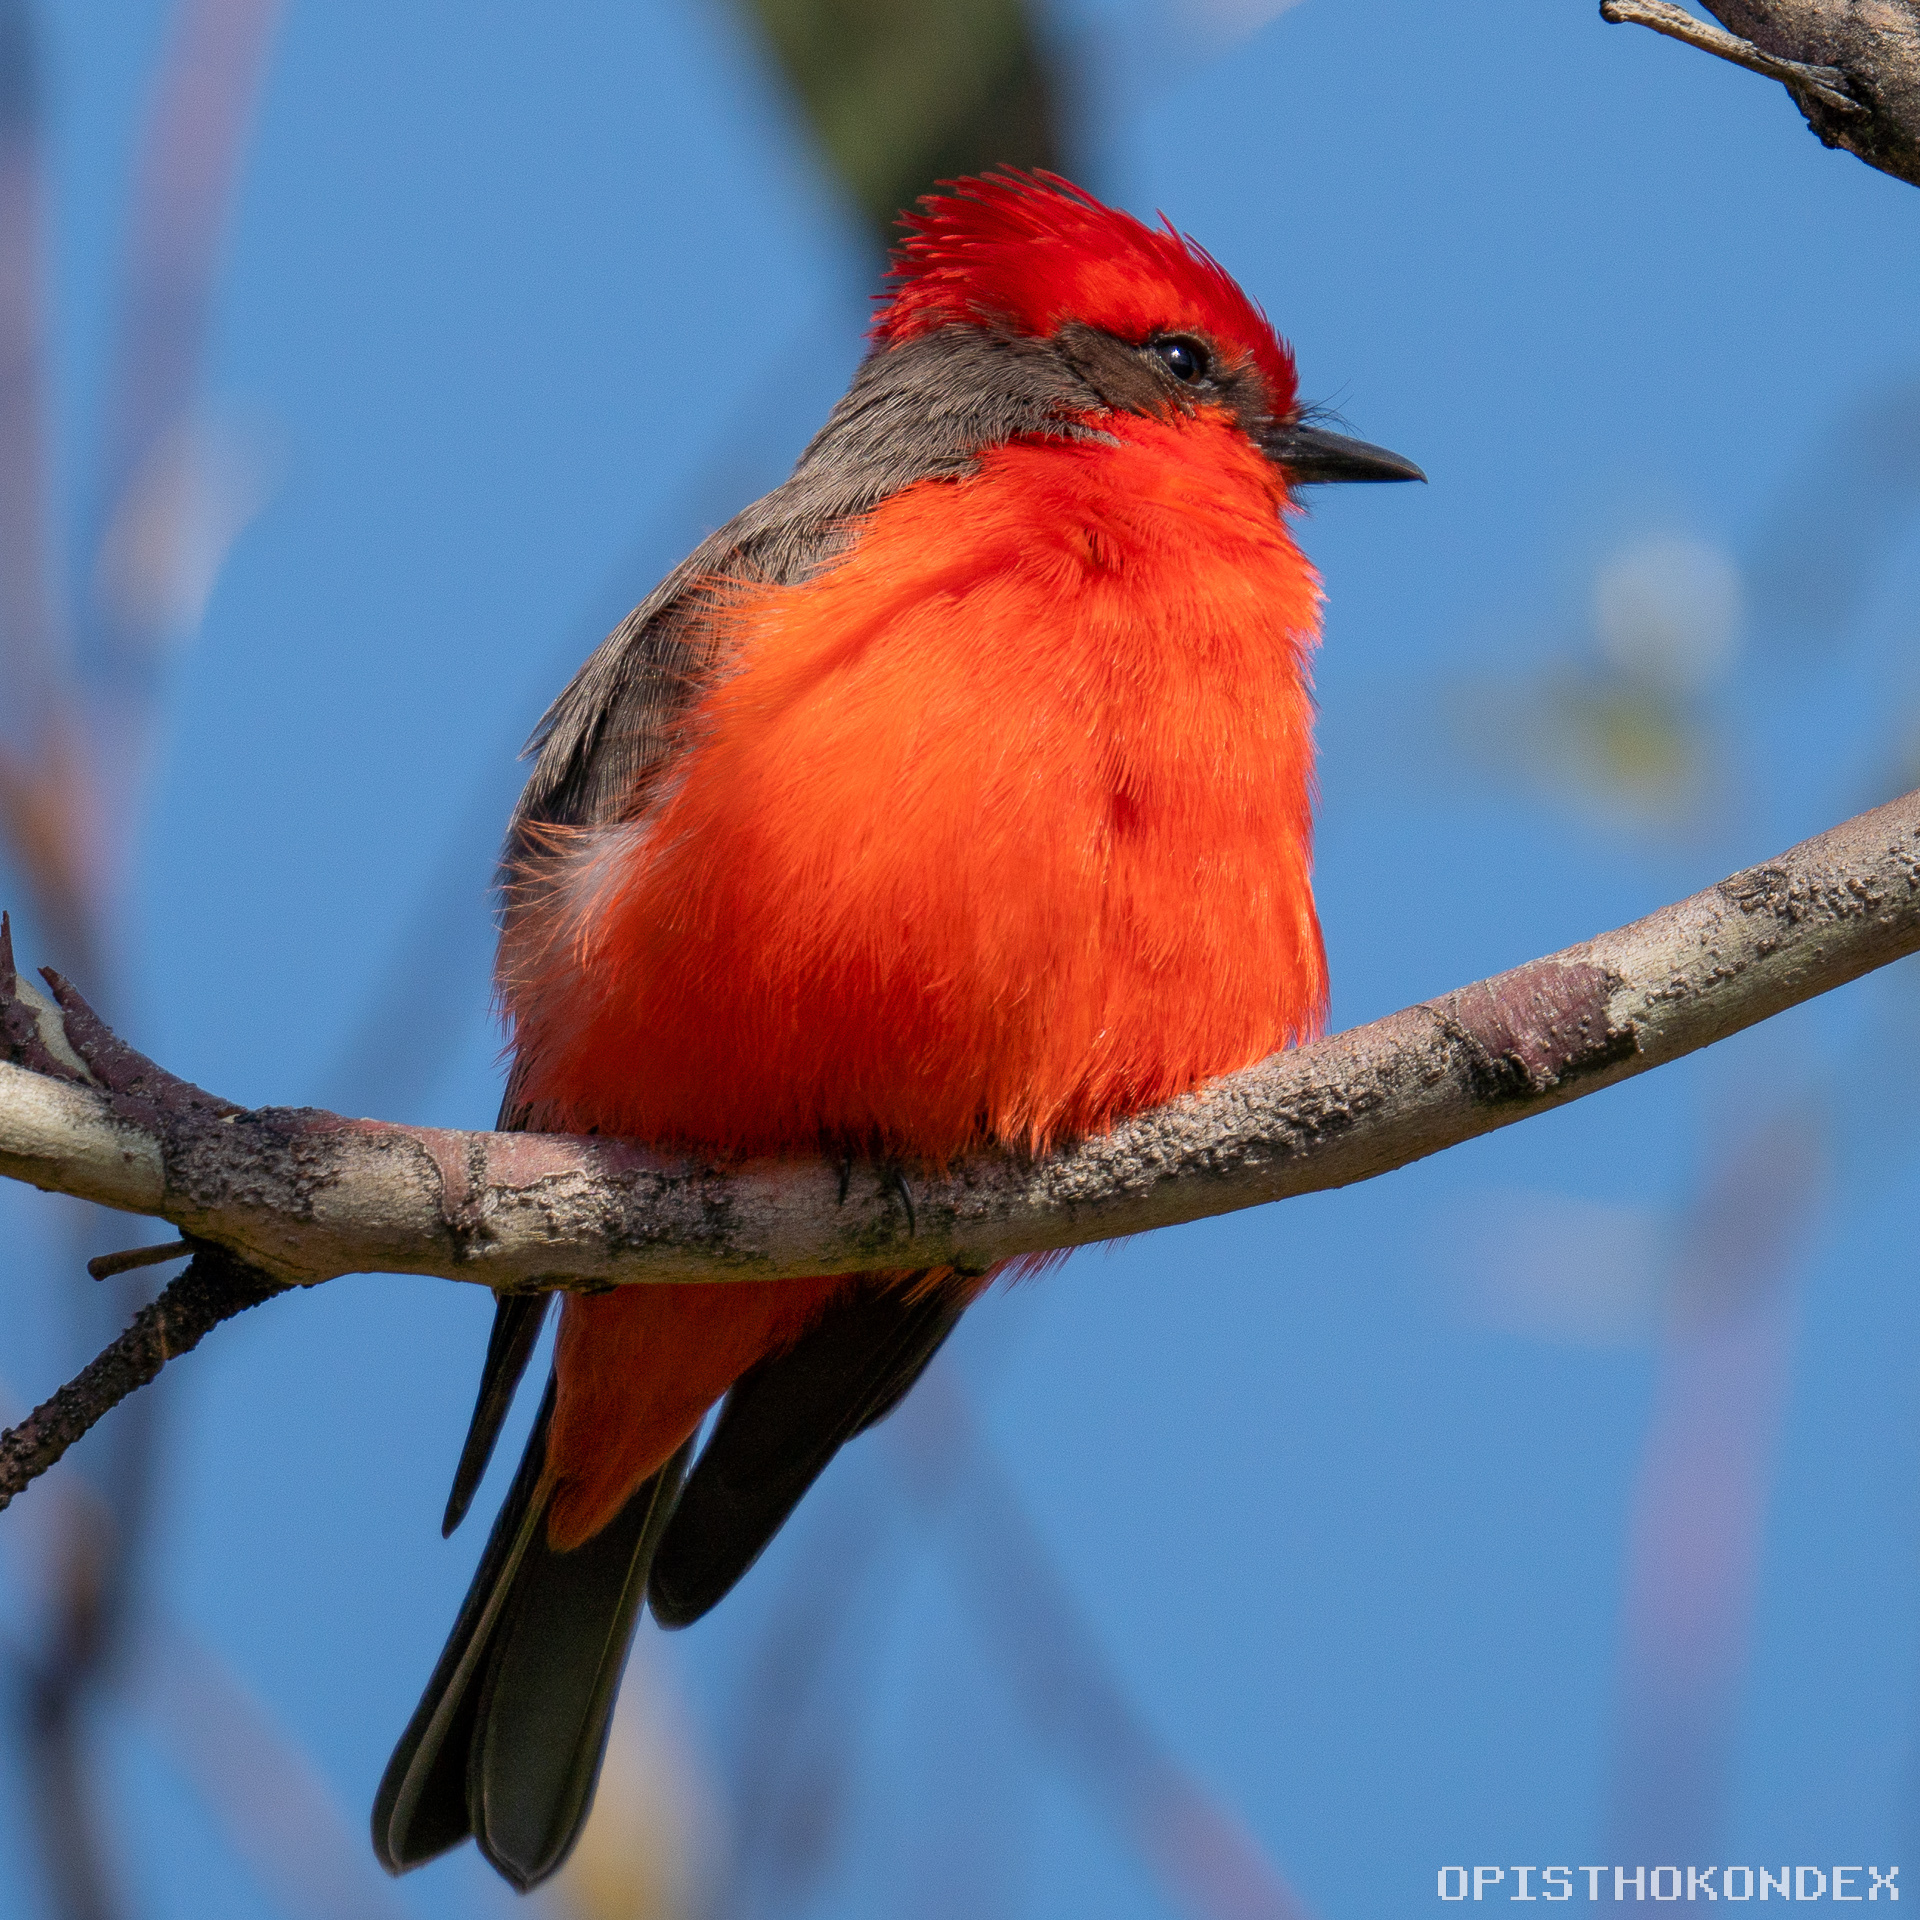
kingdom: Animalia
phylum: Chordata
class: Aves
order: Passeriformes
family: Tyrannidae
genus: Pyrocephalus
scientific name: Pyrocephalus rubinus
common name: Vermilion flycatcher
